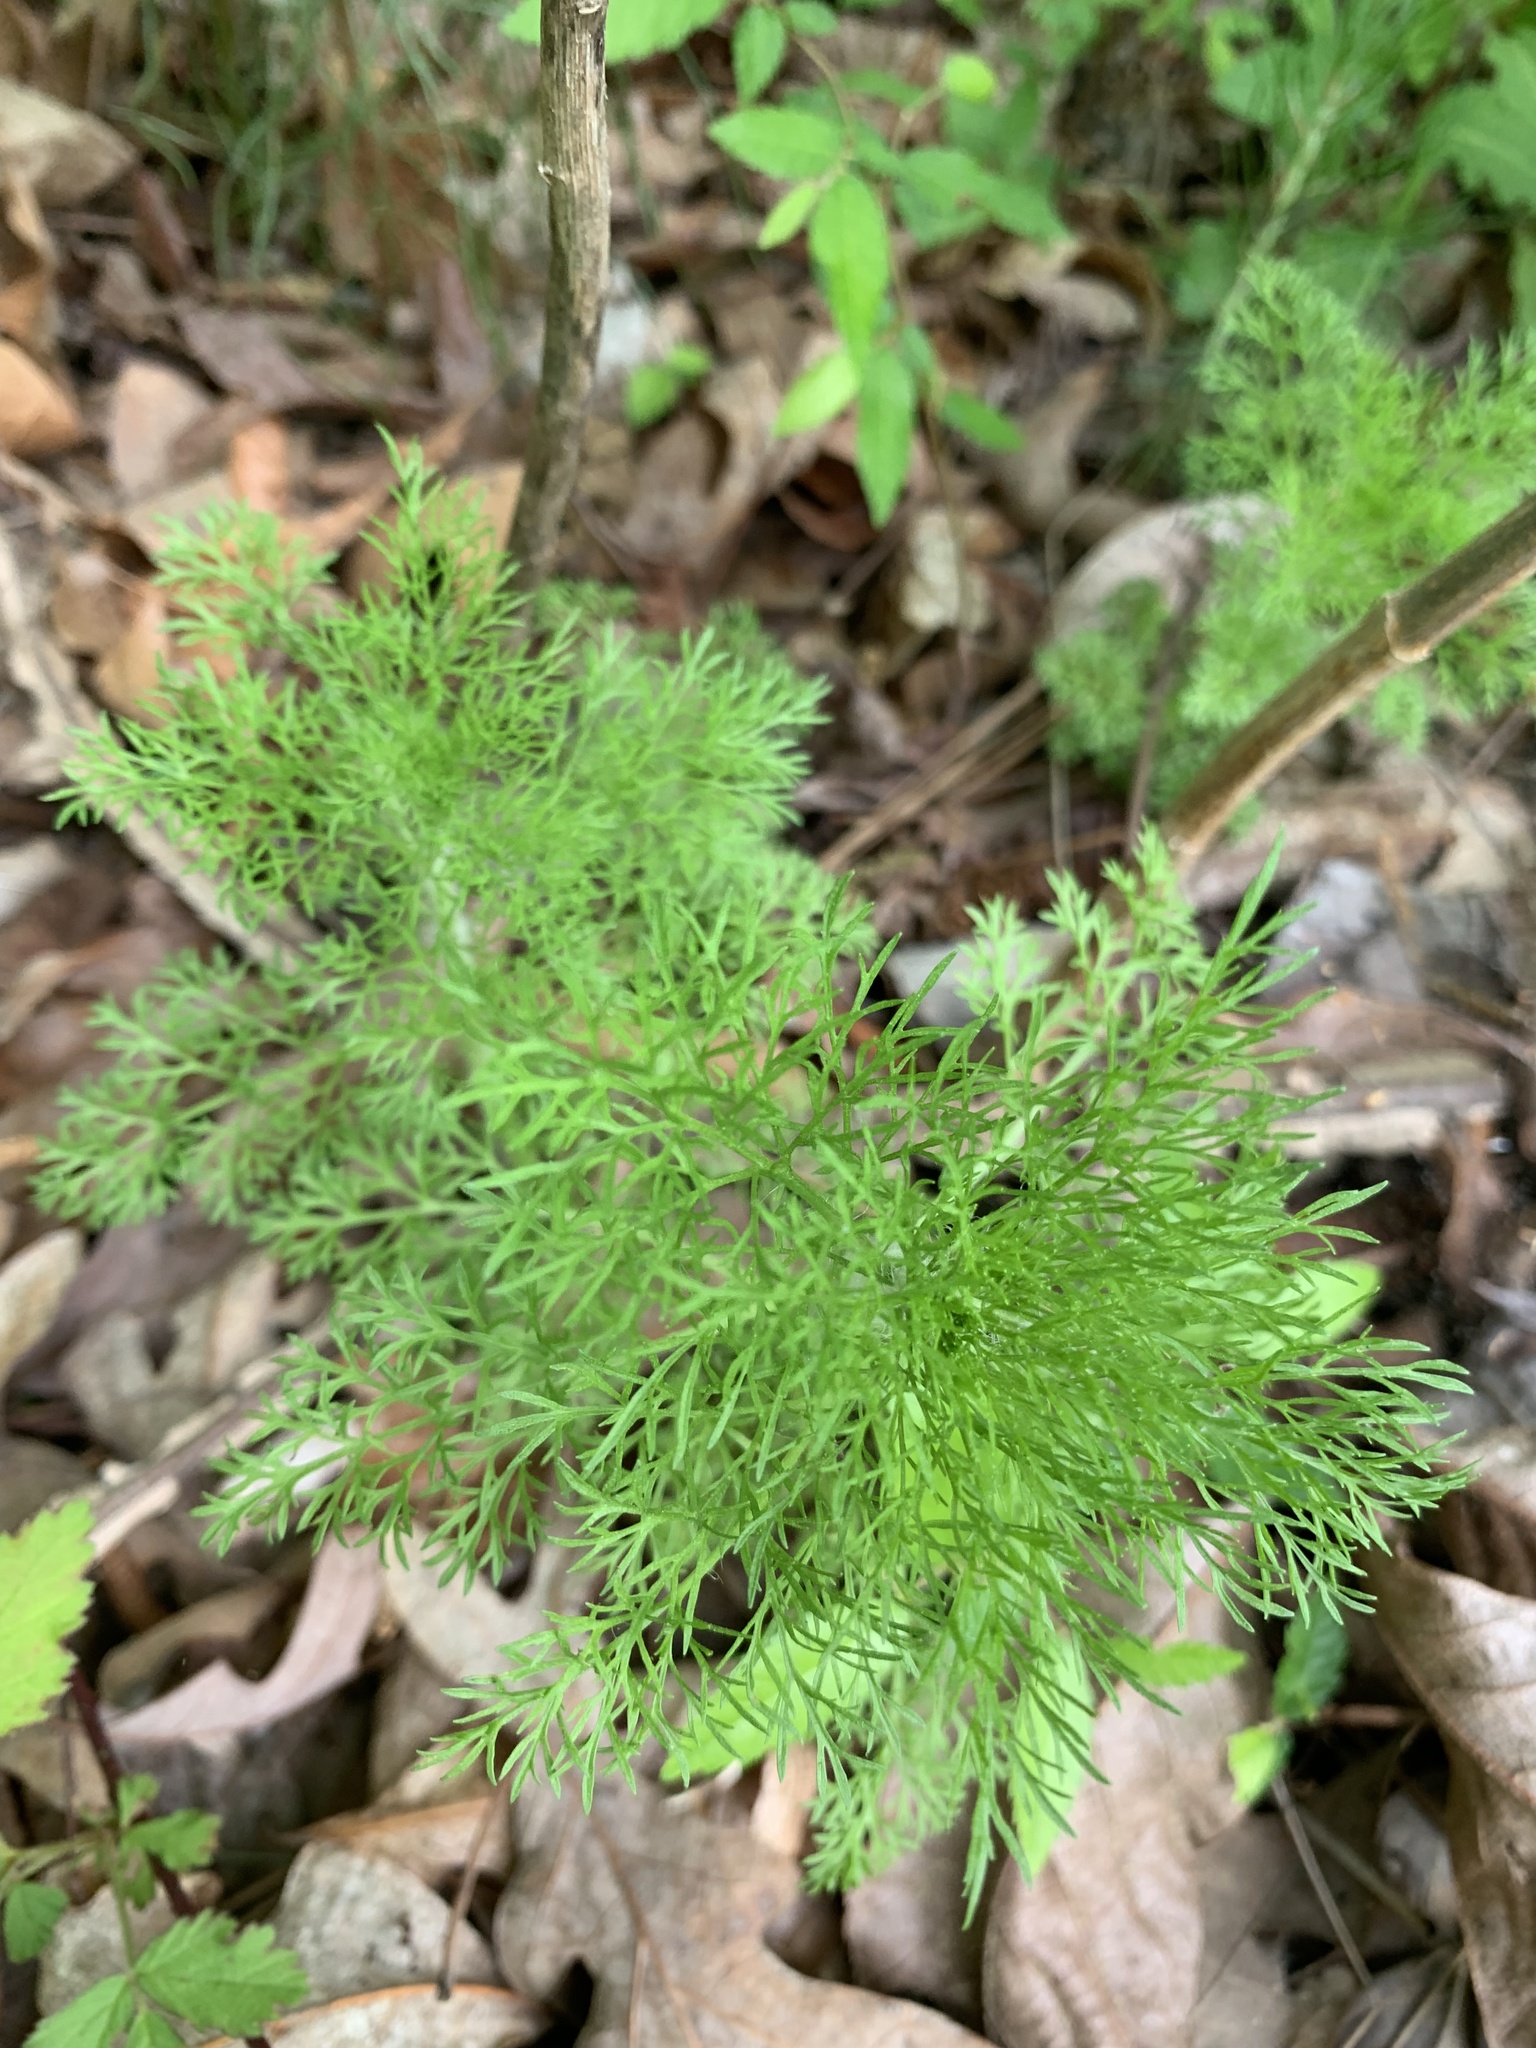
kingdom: Plantae
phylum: Tracheophyta
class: Magnoliopsida
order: Asterales
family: Asteraceae
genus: Eupatorium
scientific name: Eupatorium capillifolium
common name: Dog-fennel
